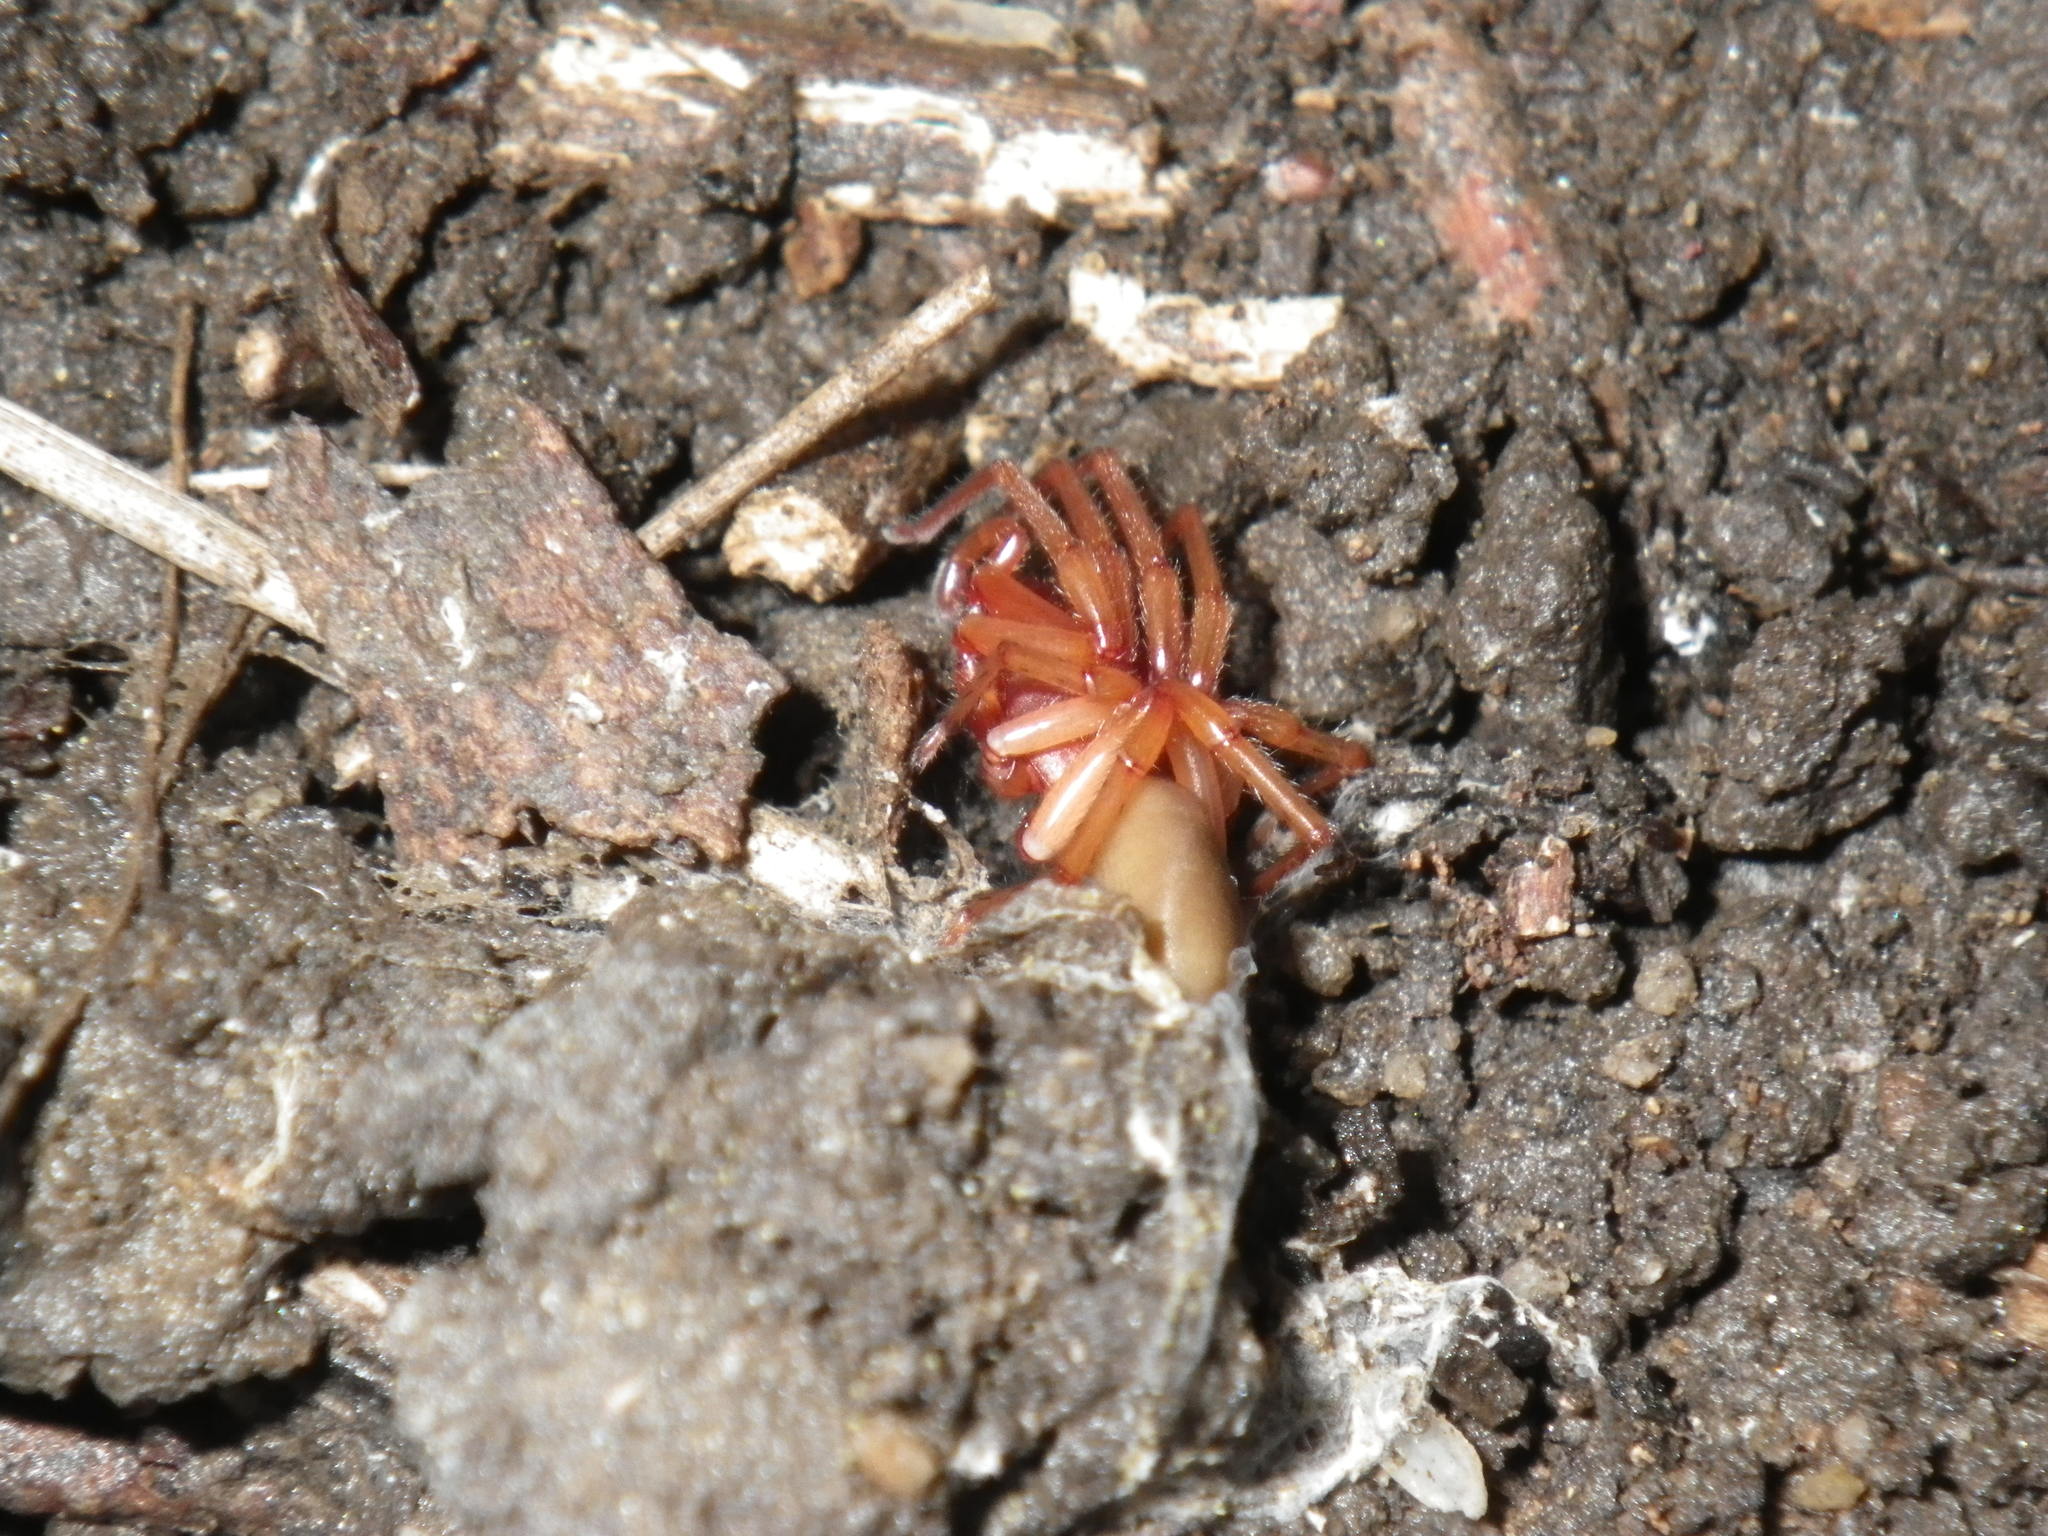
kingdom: Animalia
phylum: Arthropoda
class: Arachnida
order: Araneae
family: Dysderidae
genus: Dysdera
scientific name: Dysdera crocata
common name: Woodlouse spider
